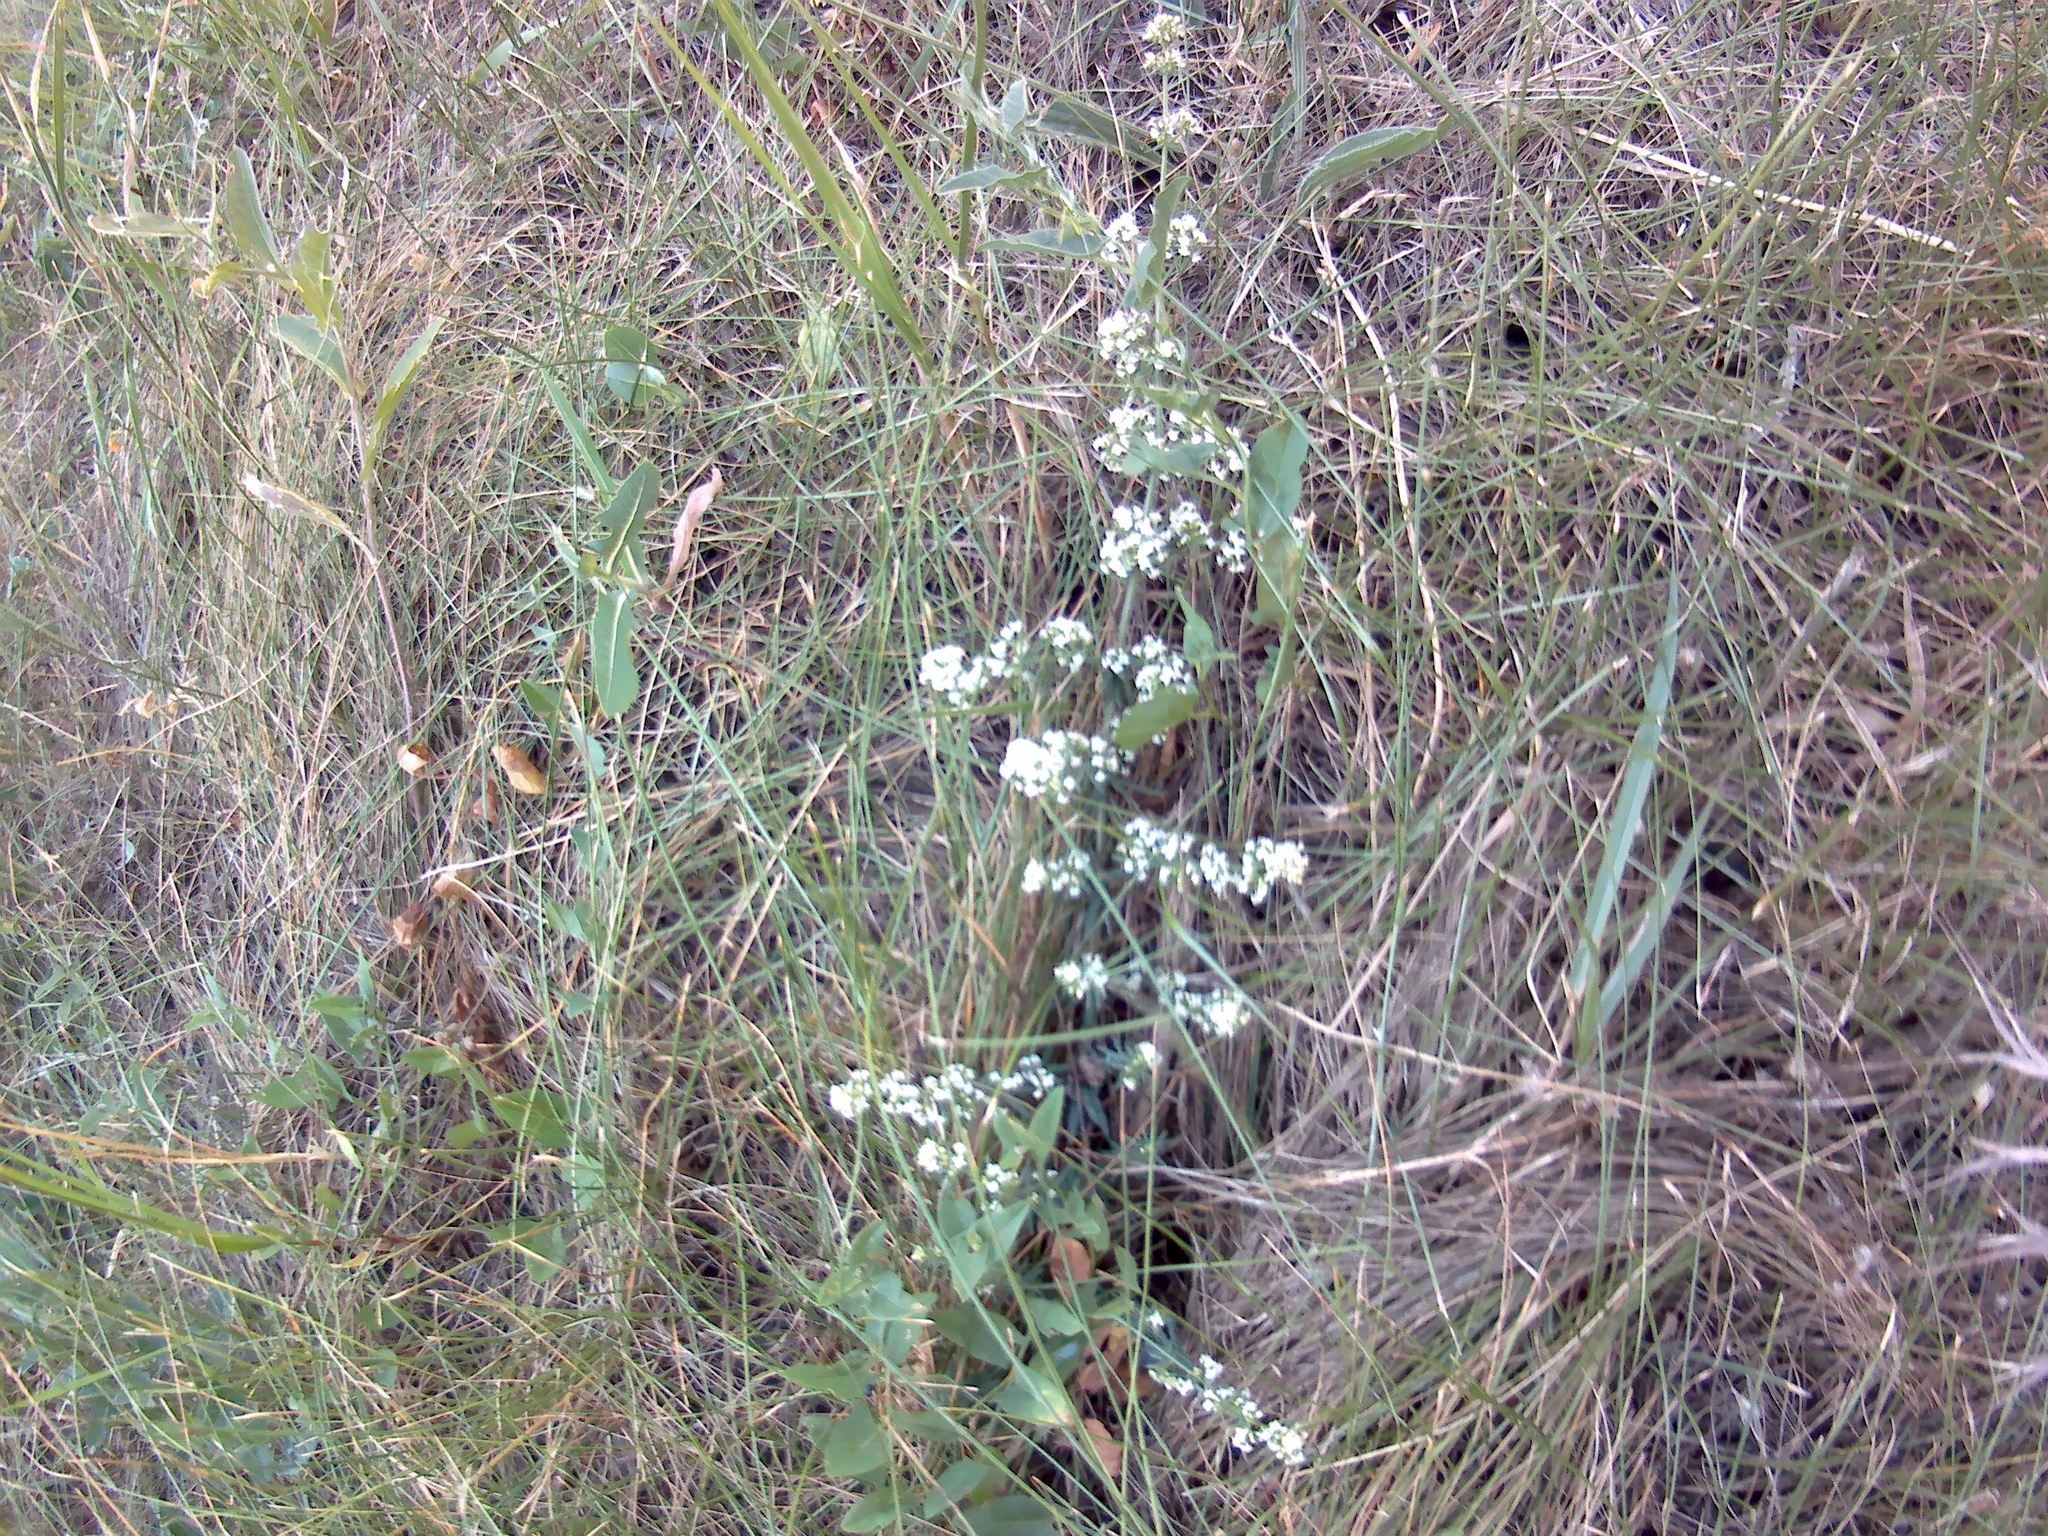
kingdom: Plantae
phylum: Tracheophyta
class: Magnoliopsida
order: Gentianales
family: Rubiaceae
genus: Galium
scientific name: Galium humifusum
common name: Spreading bedstraw
